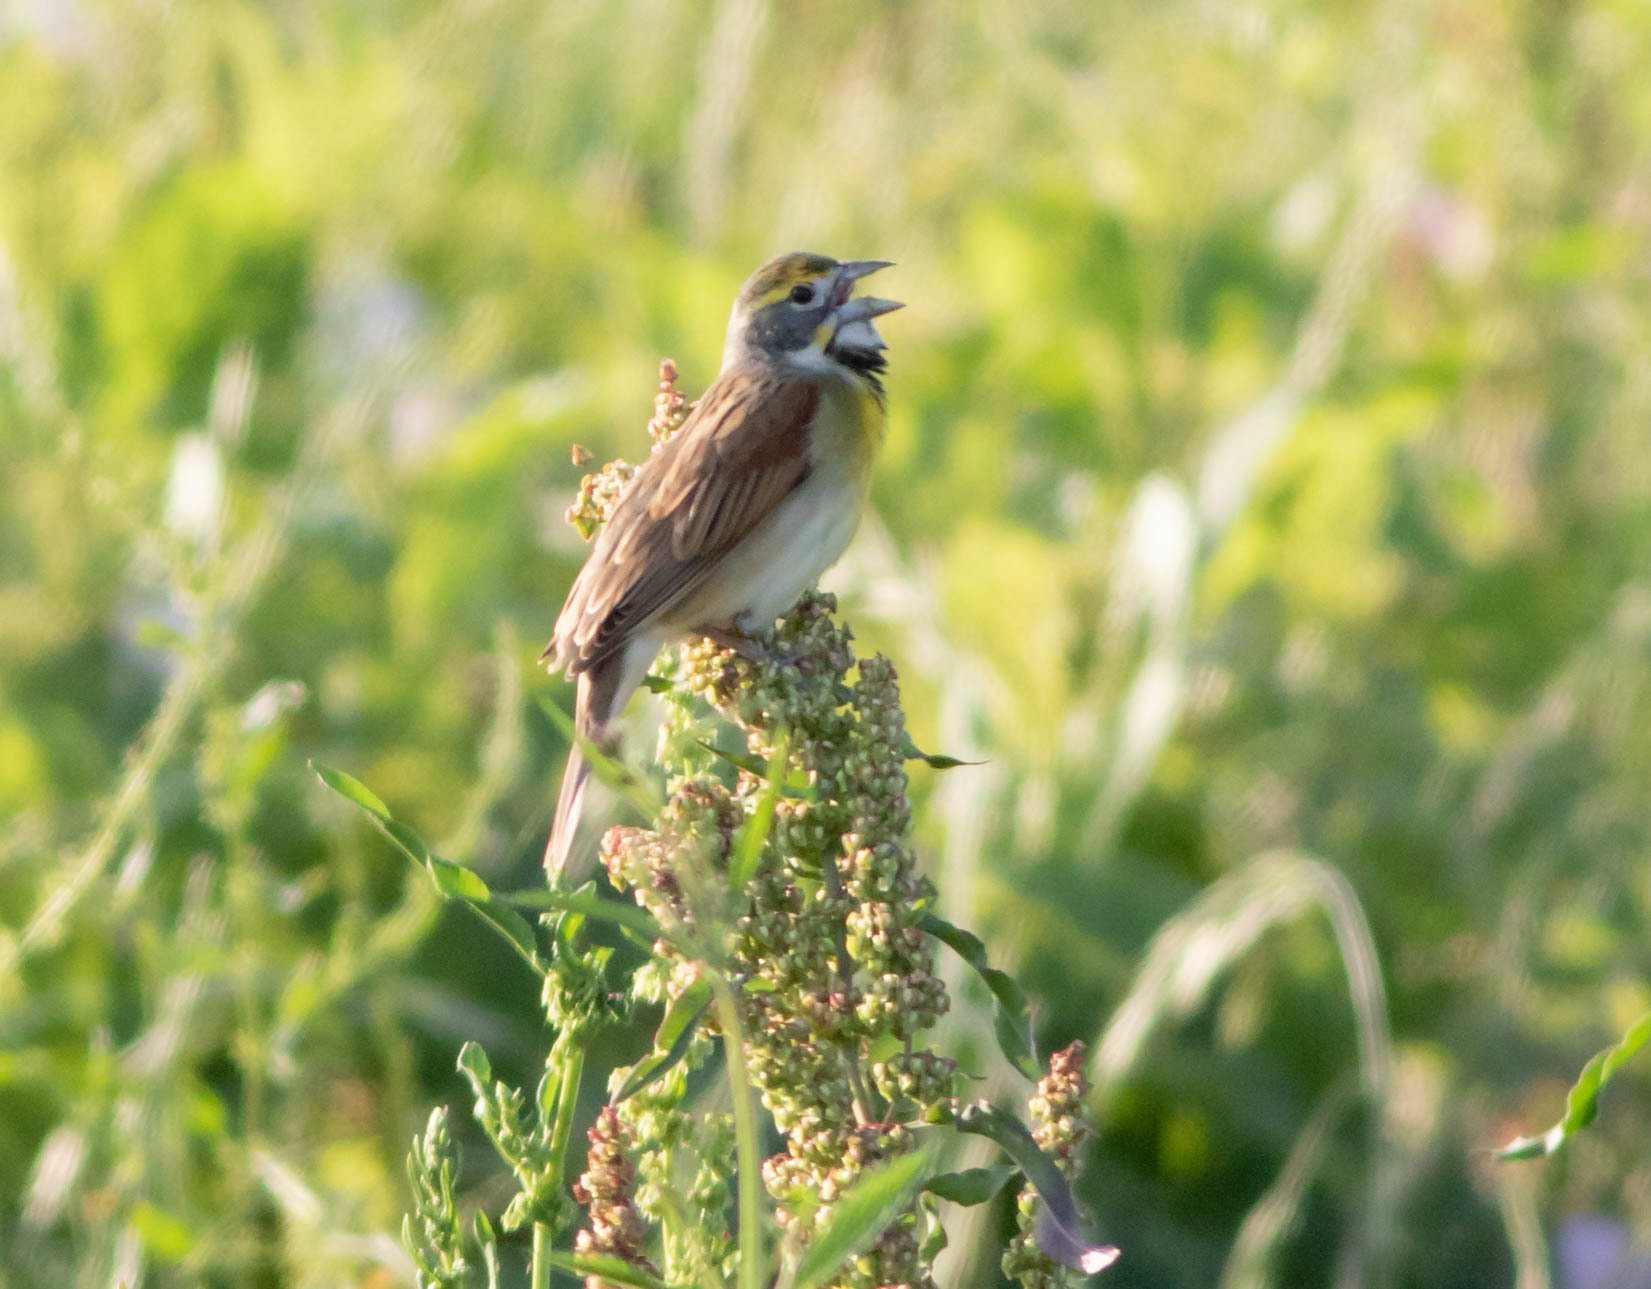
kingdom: Animalia
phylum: Chordata
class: Aves
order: Passeriformes
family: Cardinalidae
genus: Spiza
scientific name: Spiza americana
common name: Dickcissel
